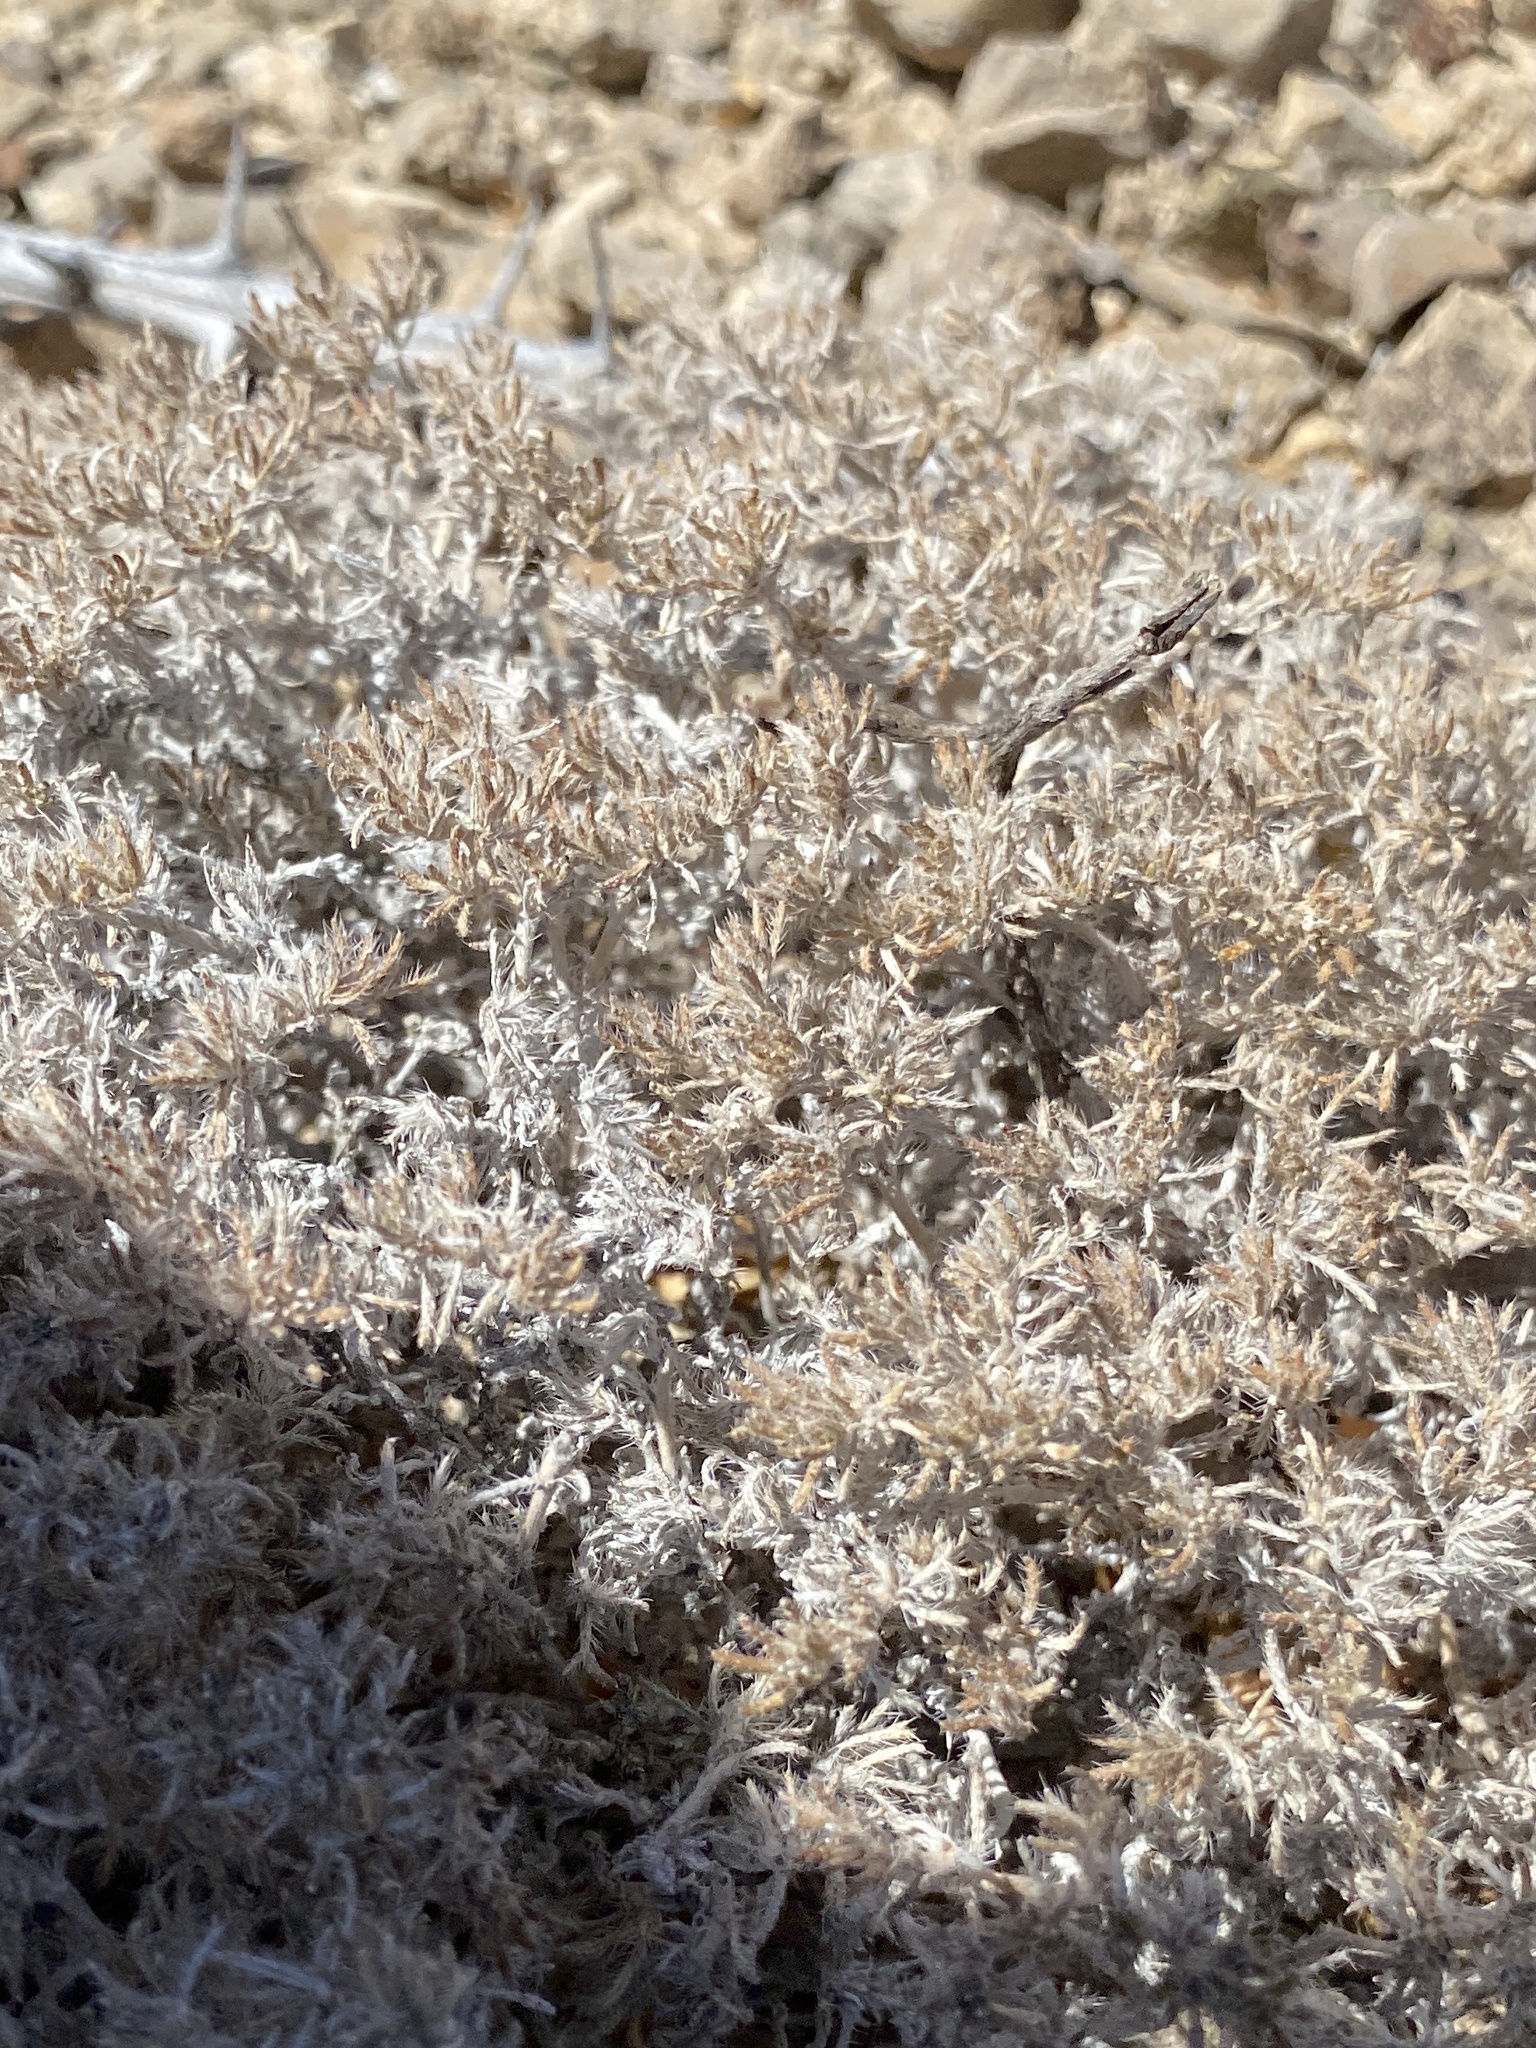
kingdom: Plantae
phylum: Tracheophyta
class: Magnoliopsida
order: Boraginales
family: Ehretiaceae
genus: Tiquilia
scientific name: Tiquilia greggii
